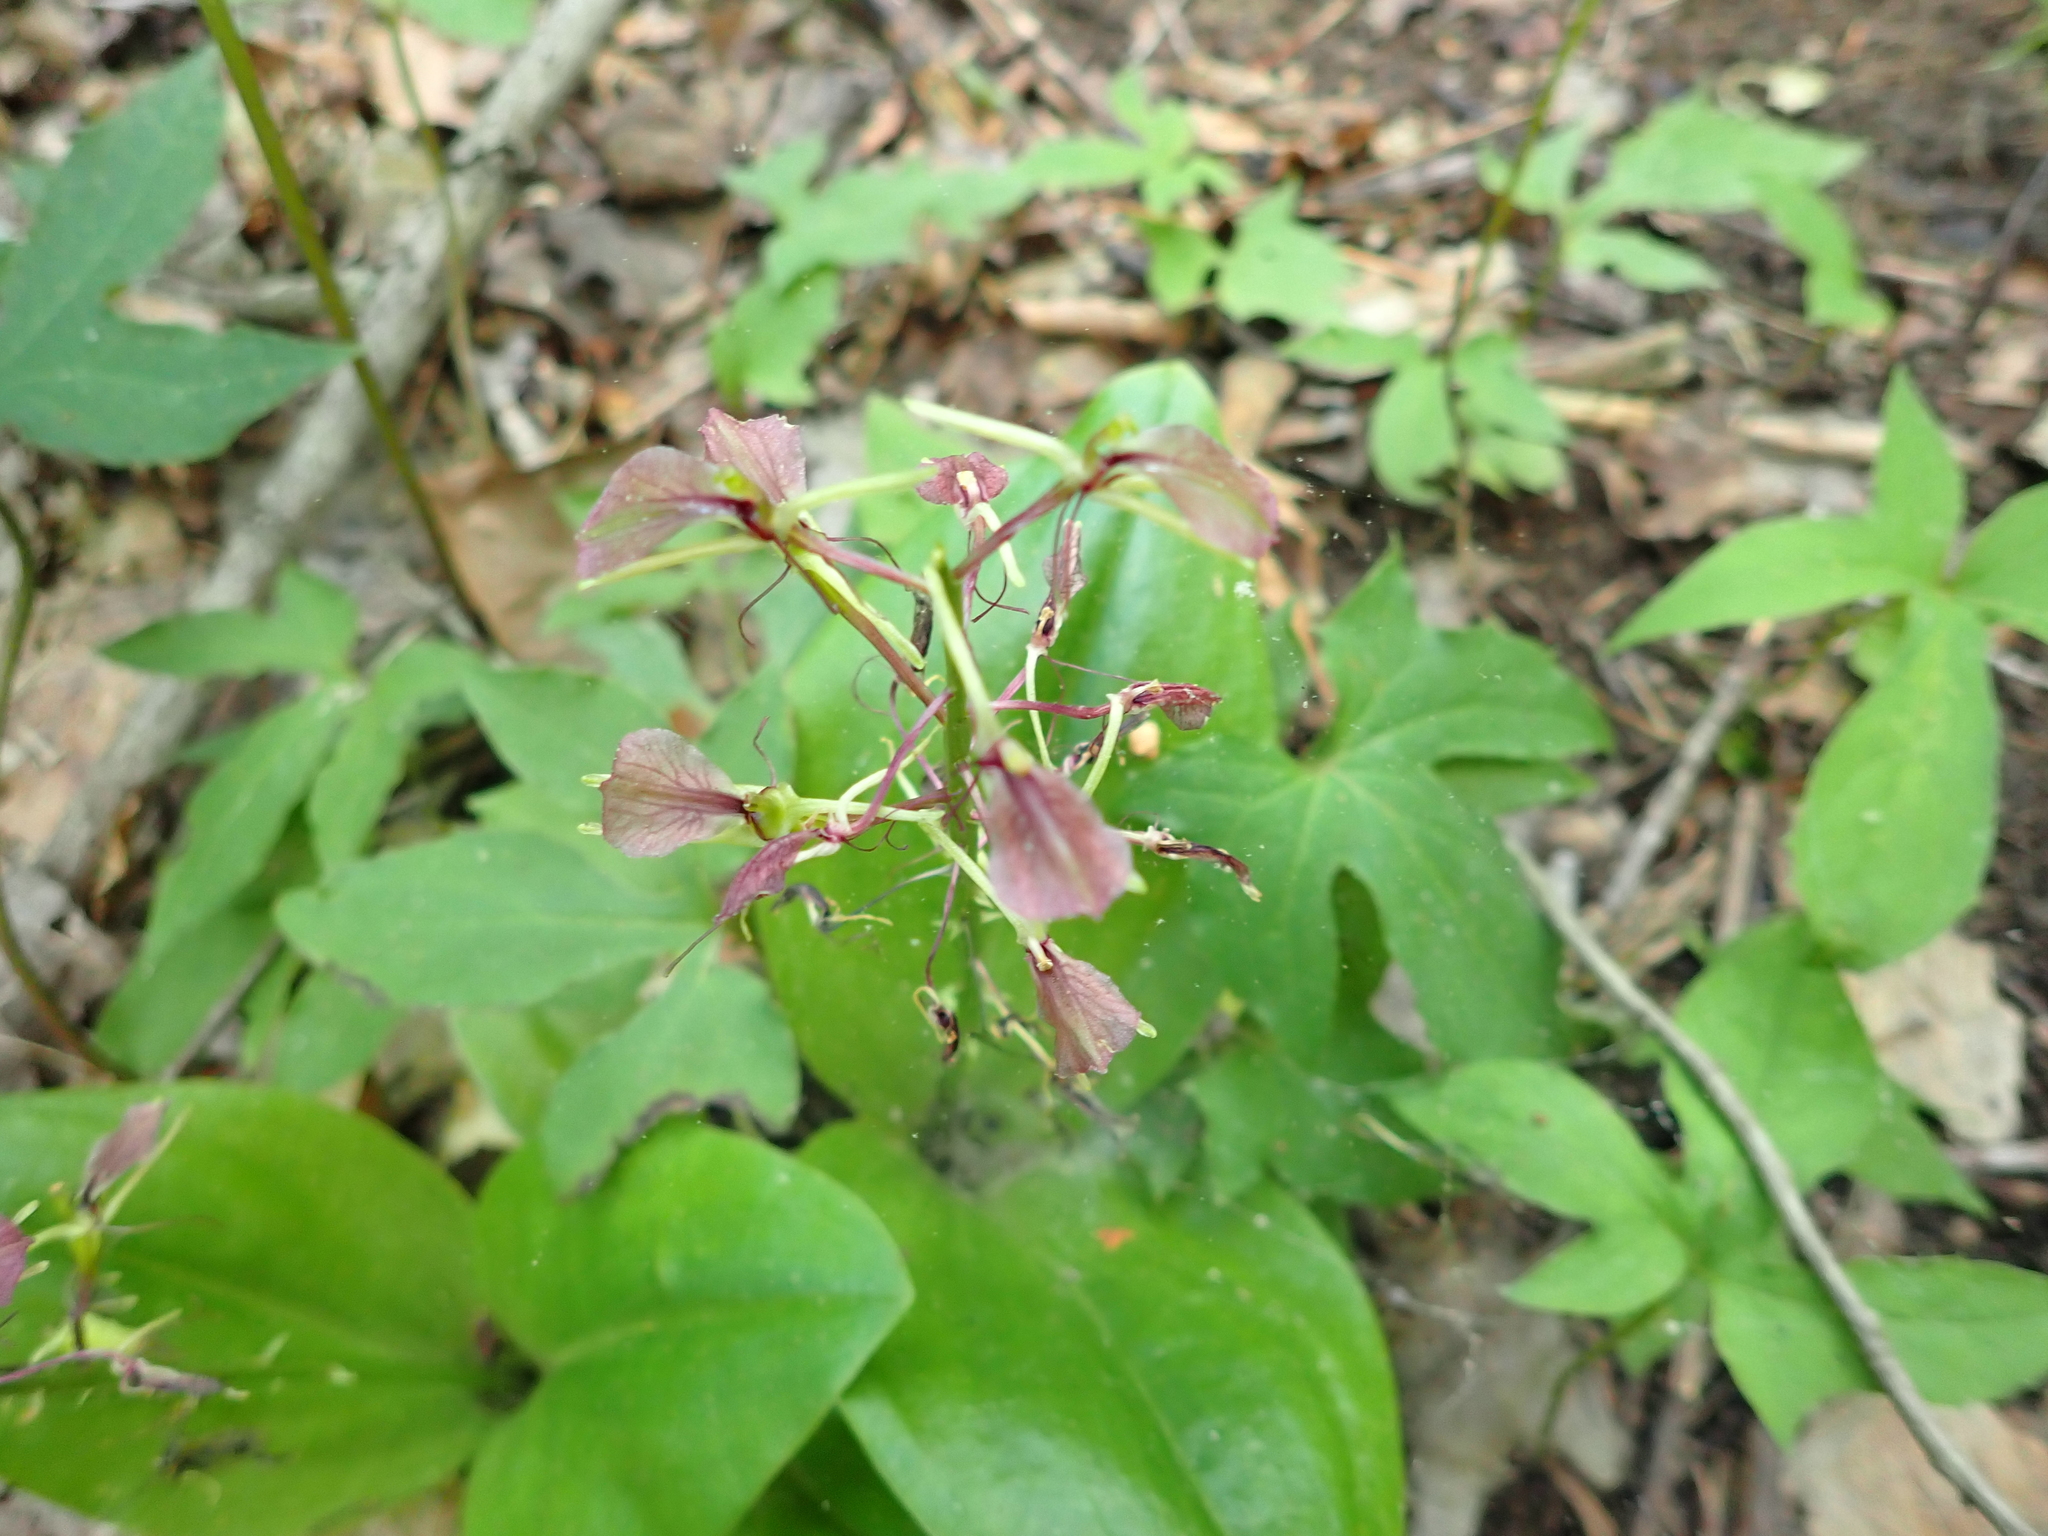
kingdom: Plantae
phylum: Tracheophyta
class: Liliopsida
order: Asparagales
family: Orchidaceae
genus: Liparis
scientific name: Liparis liliifolia
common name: Brown wide-lip orchid
